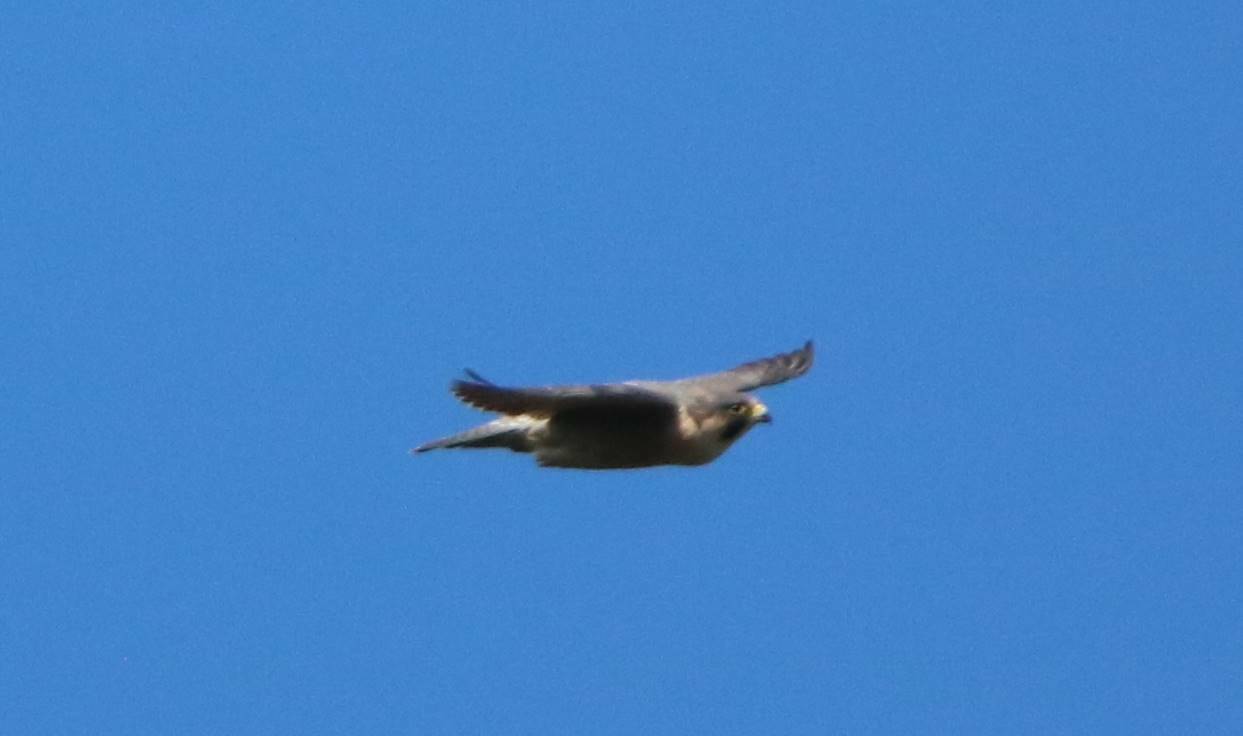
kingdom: Animalia
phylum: Chordata
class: Aves
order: Falconiformes
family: Falconidae
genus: Falco
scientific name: Falco peregrinus
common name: Peregrine falcon
